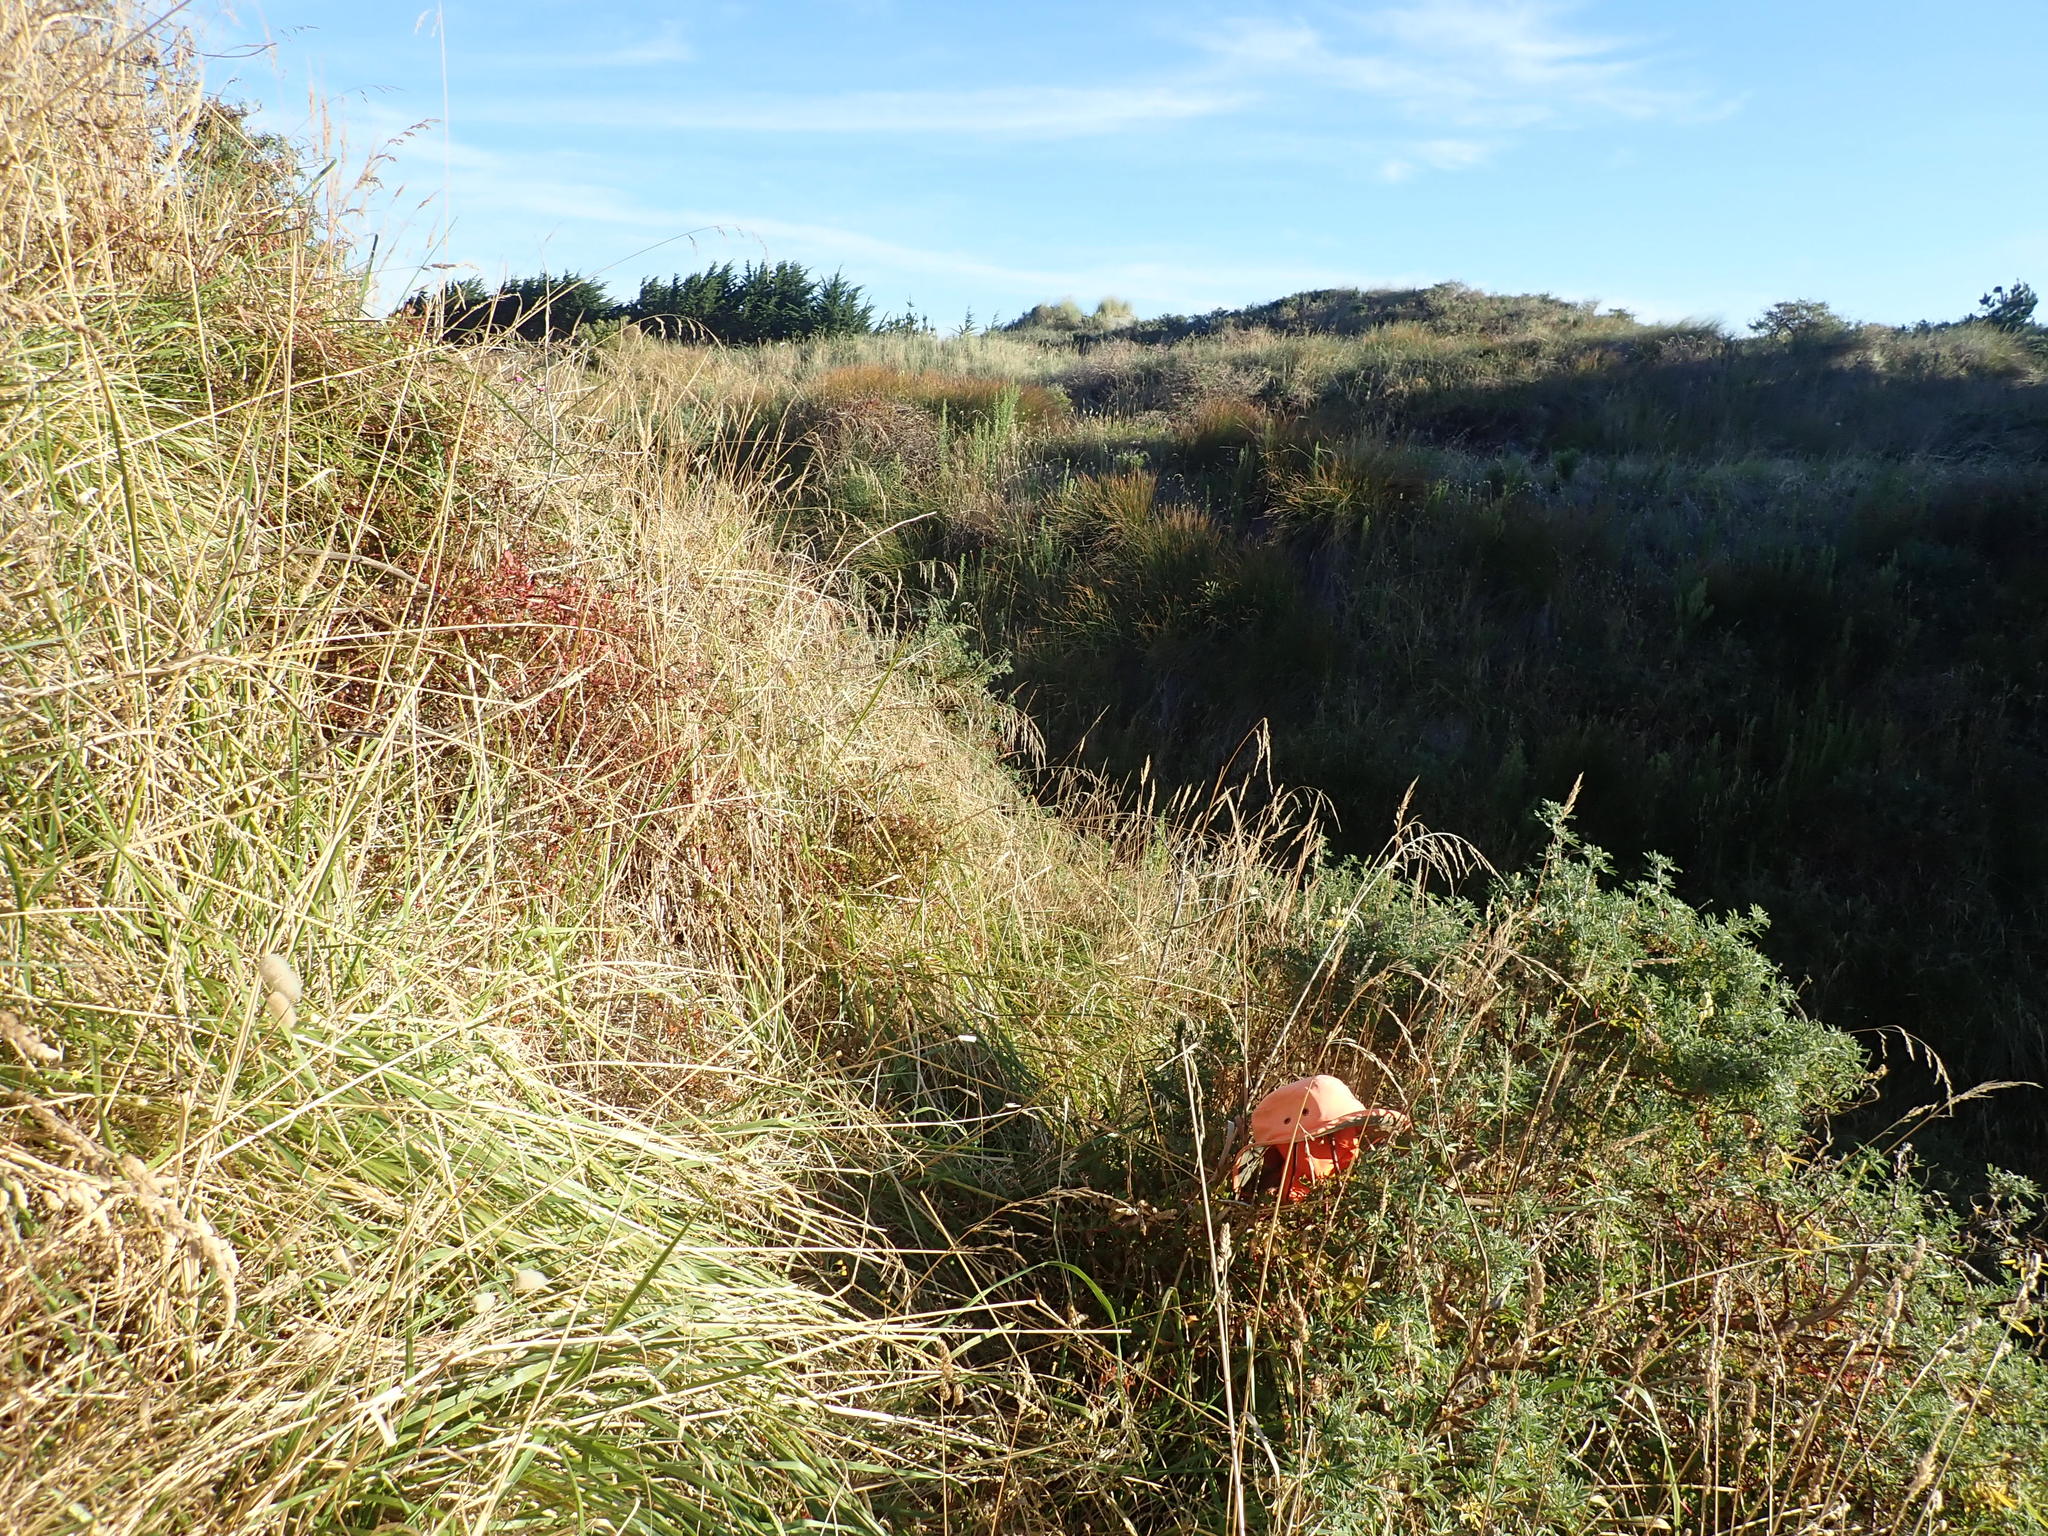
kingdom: Plantae
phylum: Tracheophyta
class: Magnoliopsida
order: Fabales
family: Fabaceae
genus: Lupinus
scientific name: Lupinus arboreus
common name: Yellow bush lupine
